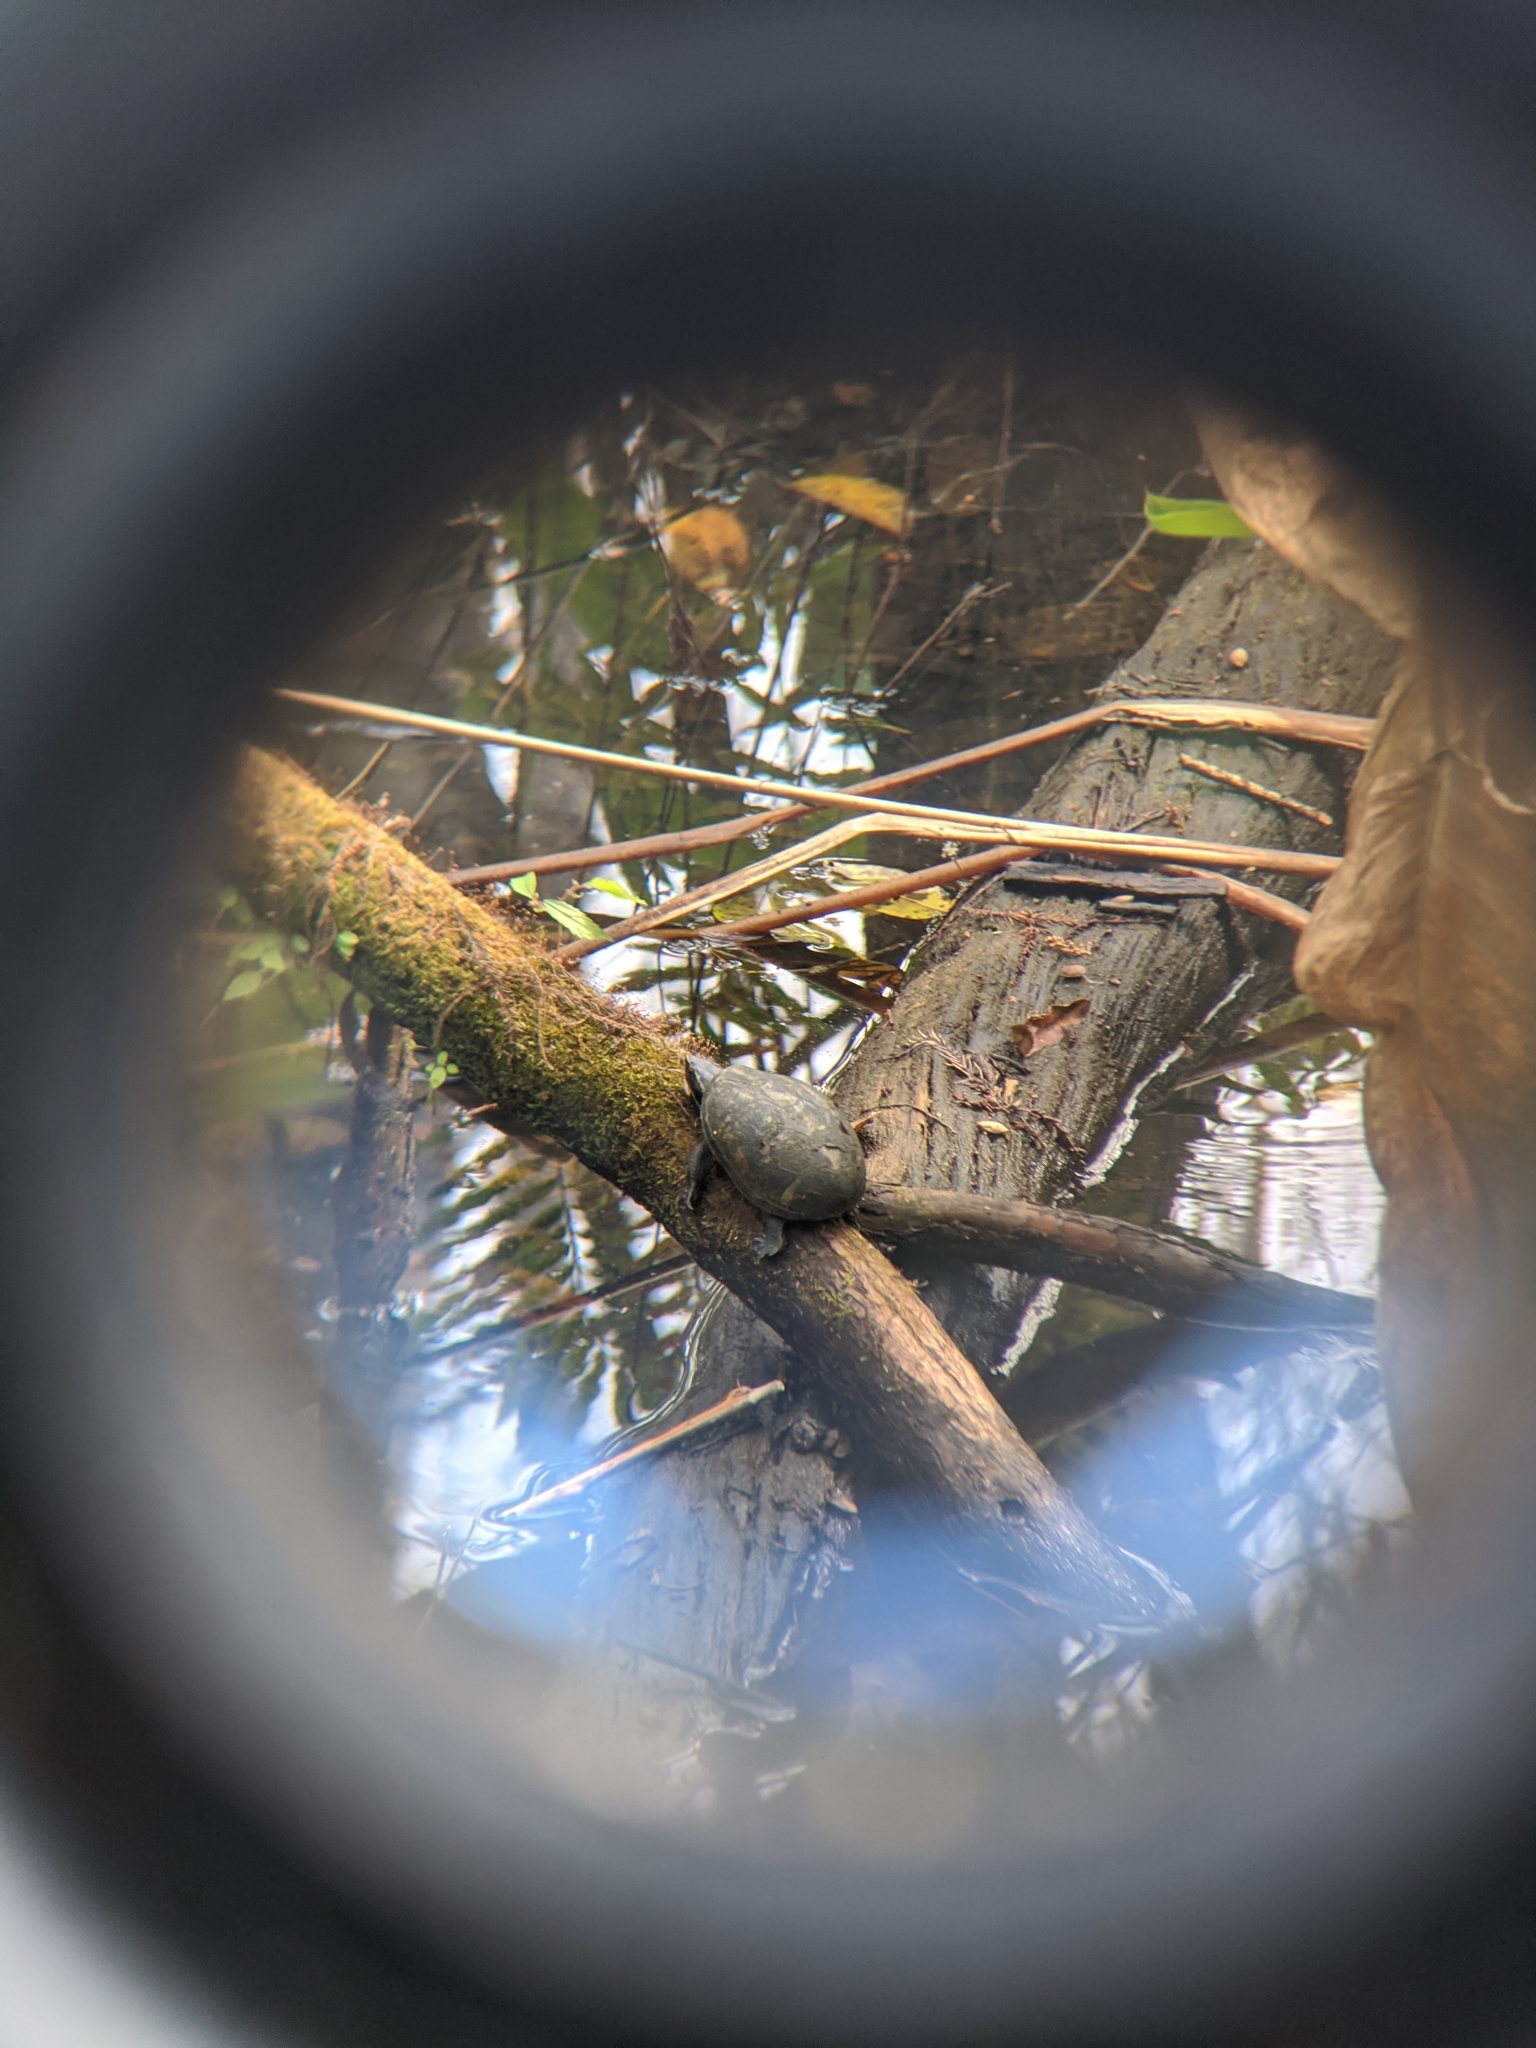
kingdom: Animalia
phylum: Chordata
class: Testudines
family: Kinosternidae
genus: Kinosternon
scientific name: Kinosternon baurii
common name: Striped mud turtle
